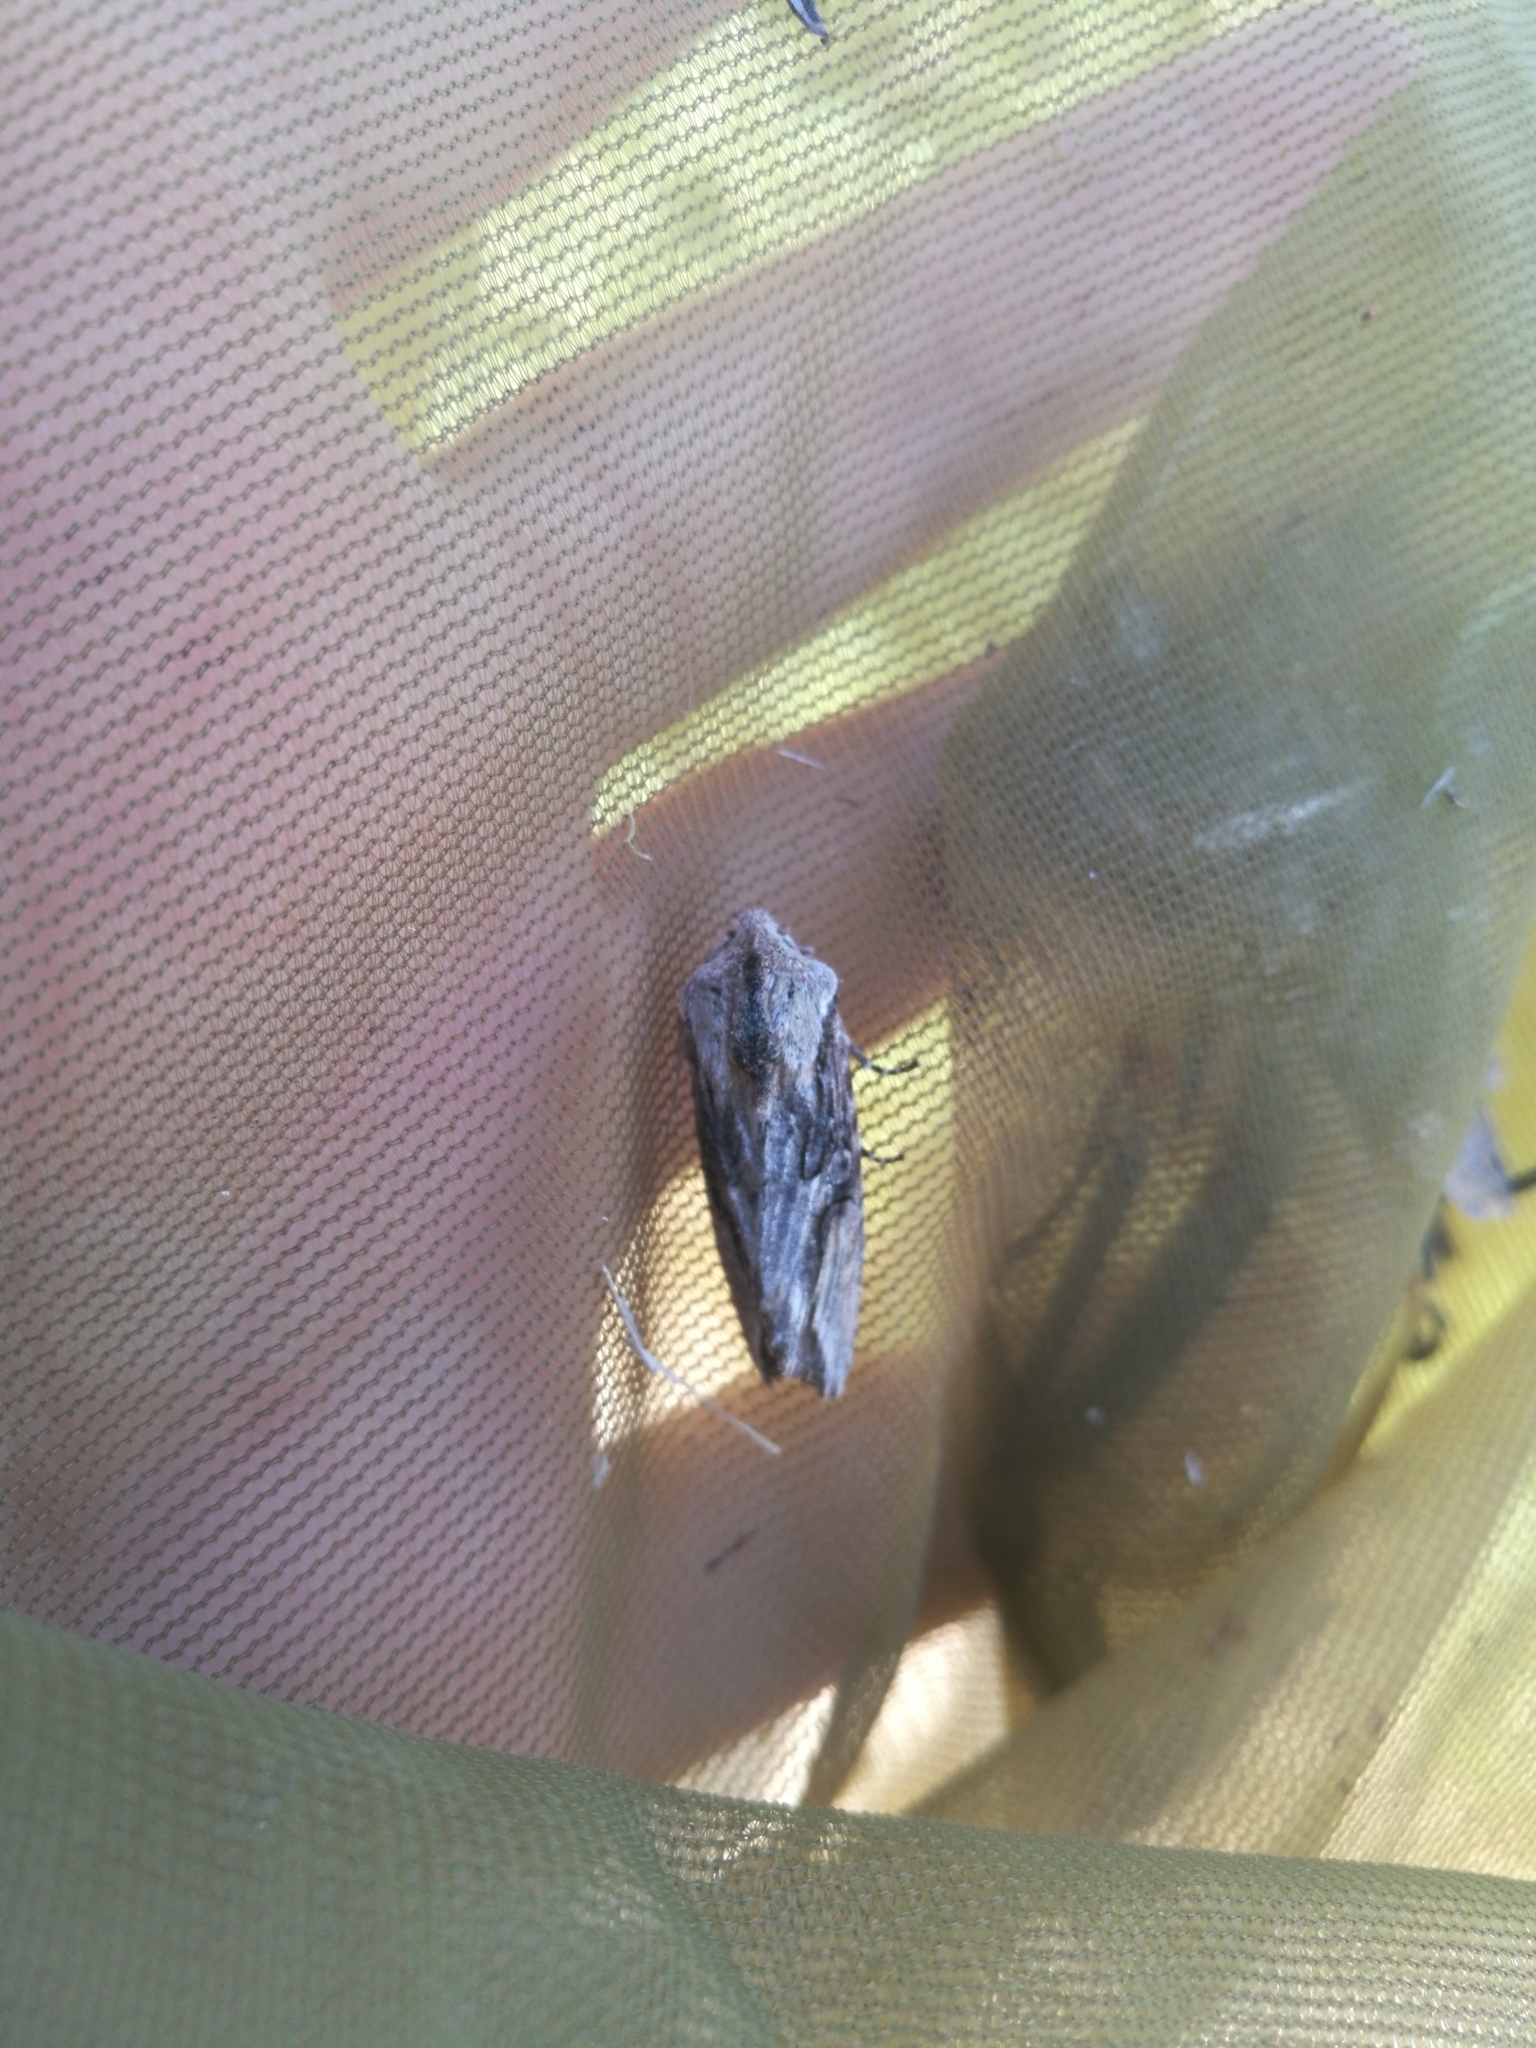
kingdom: Animalia
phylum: Arthropoda
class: Insecta
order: Lepidoptera
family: Noctuidae
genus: Egira
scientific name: Egira conspicillaris
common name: Silver cloud
